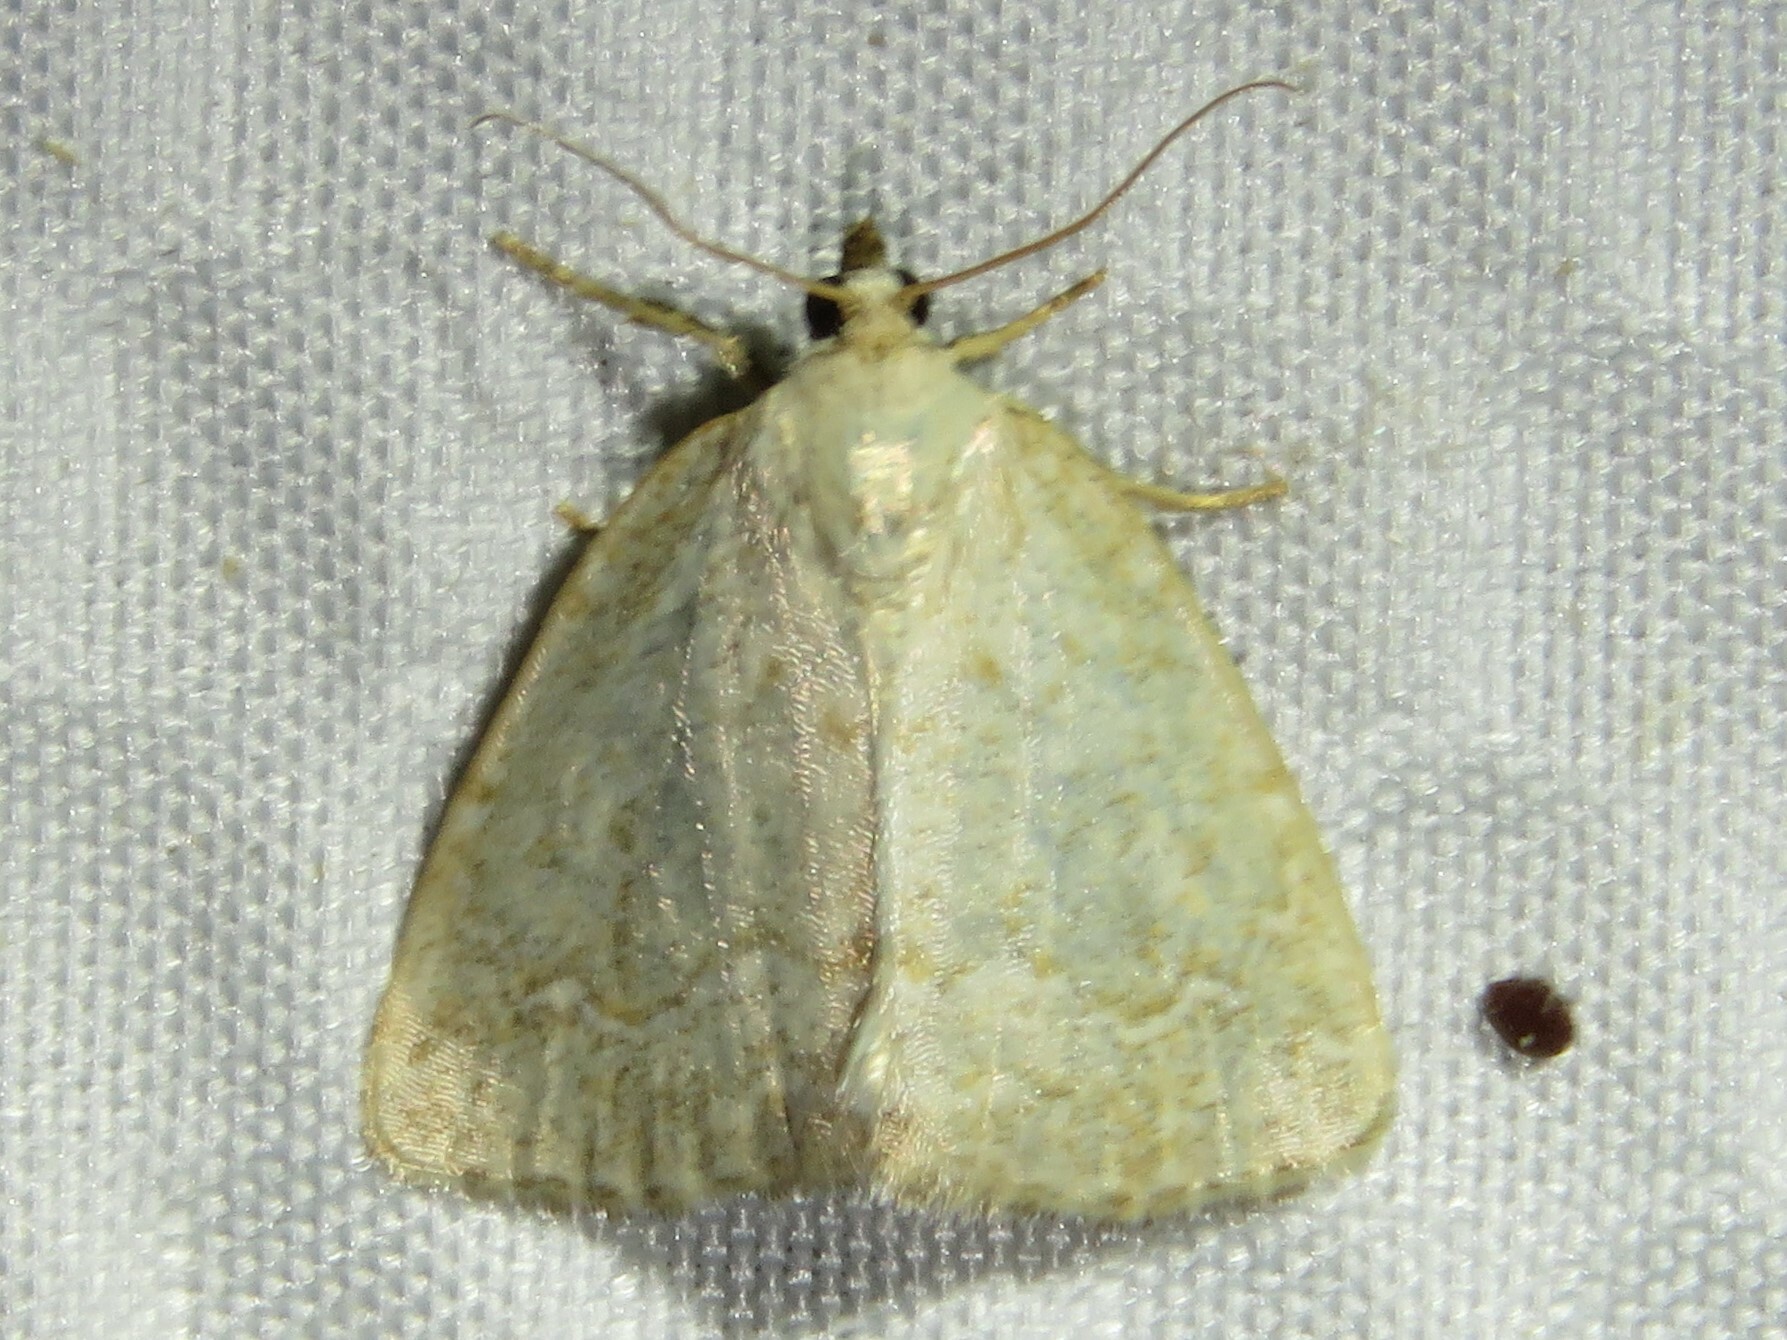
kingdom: Animalia
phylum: Arthropoda
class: Insecta
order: Lepidoptera
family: Noctuidae
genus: Protodeltote
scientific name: Protodeltote albidula
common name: Pale glyph
